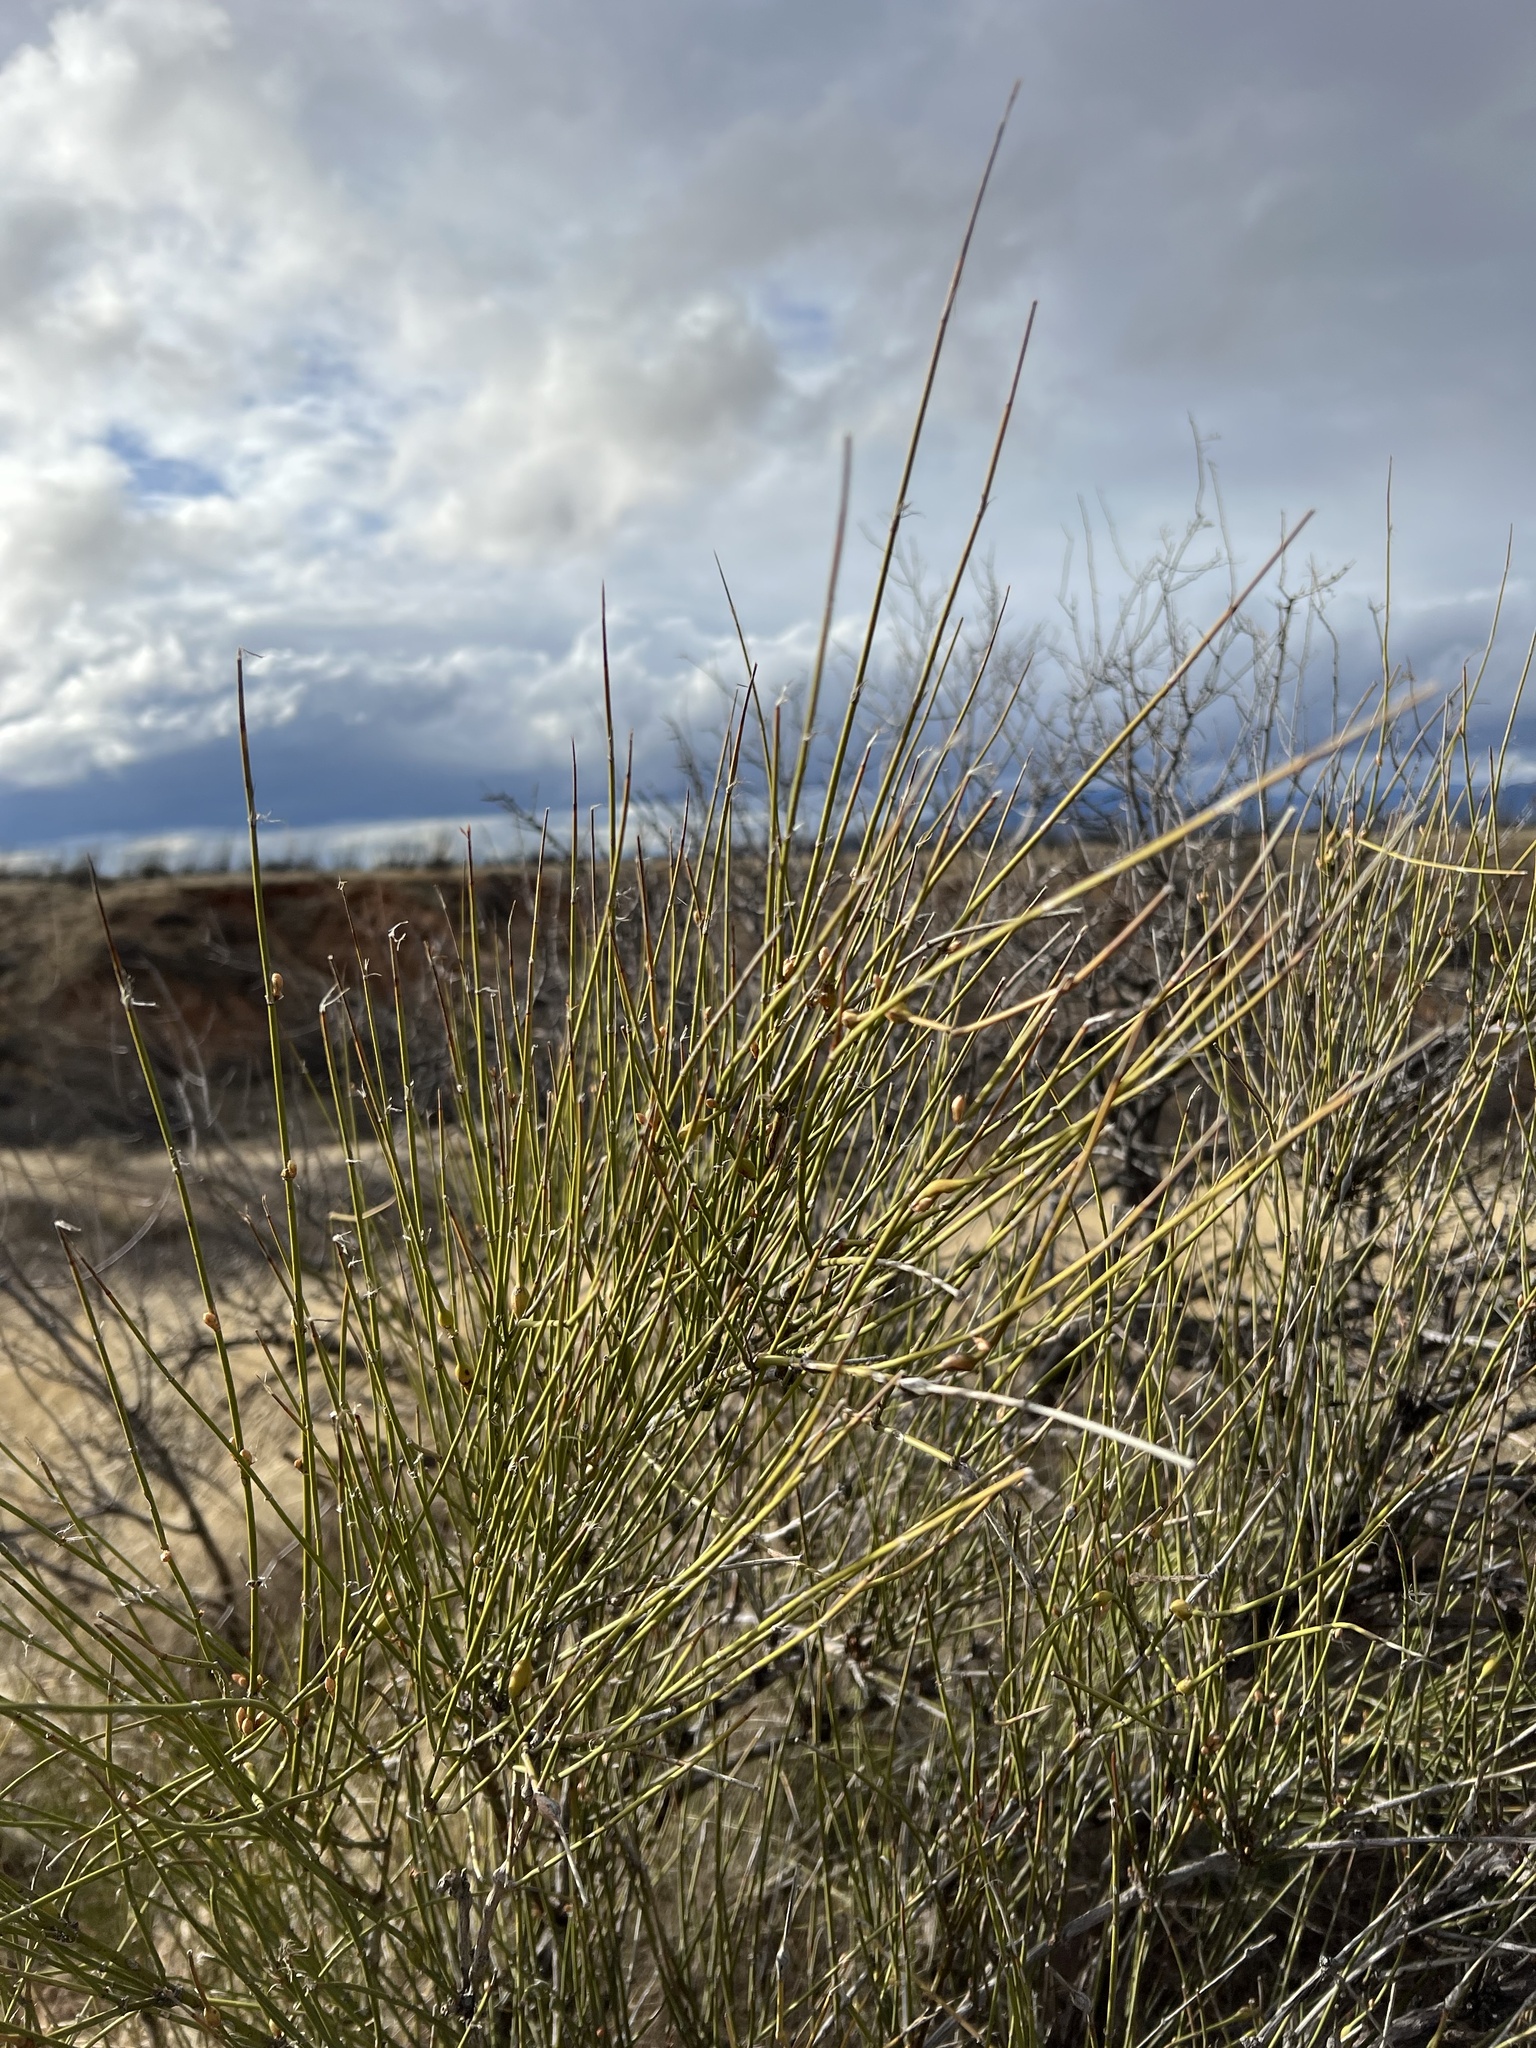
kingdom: Plantae
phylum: Tracheophyta
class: Gnetopsida
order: Ephedrales
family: Ephedraceae
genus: Ephedra
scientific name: Ephedra trifurca
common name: Mexican-tea
